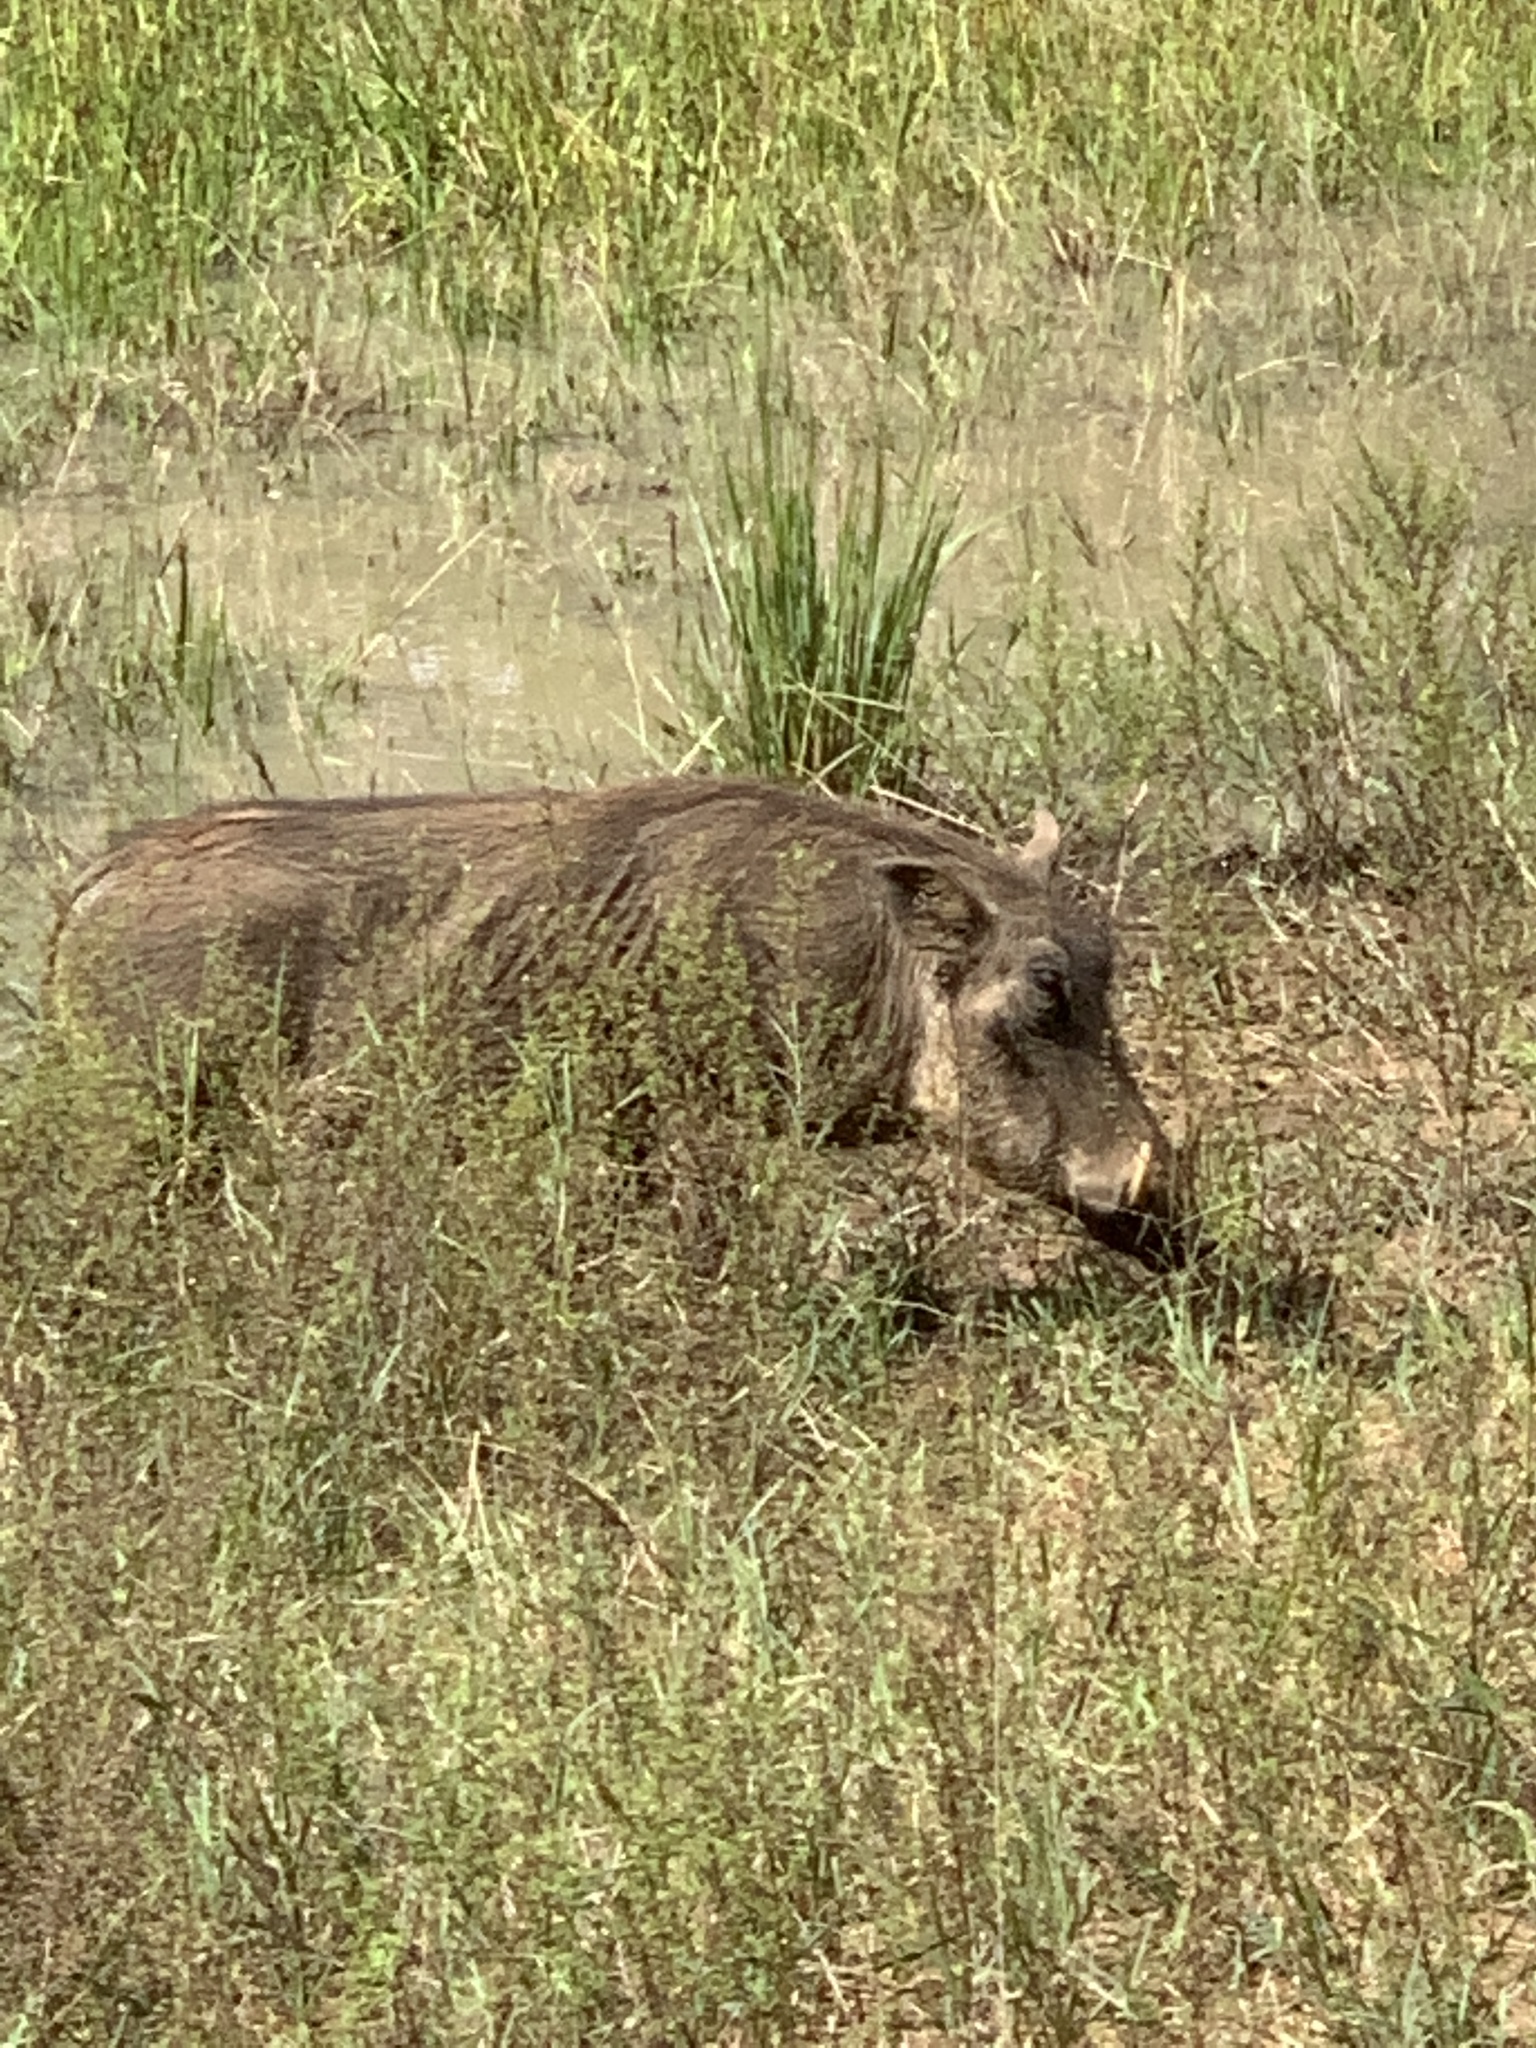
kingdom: Animalia
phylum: Chordata
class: Mammalia
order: Artiodactyla
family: Suidae
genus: Phacochoerus
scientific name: Phacochoerus africanus
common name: Common warthog
